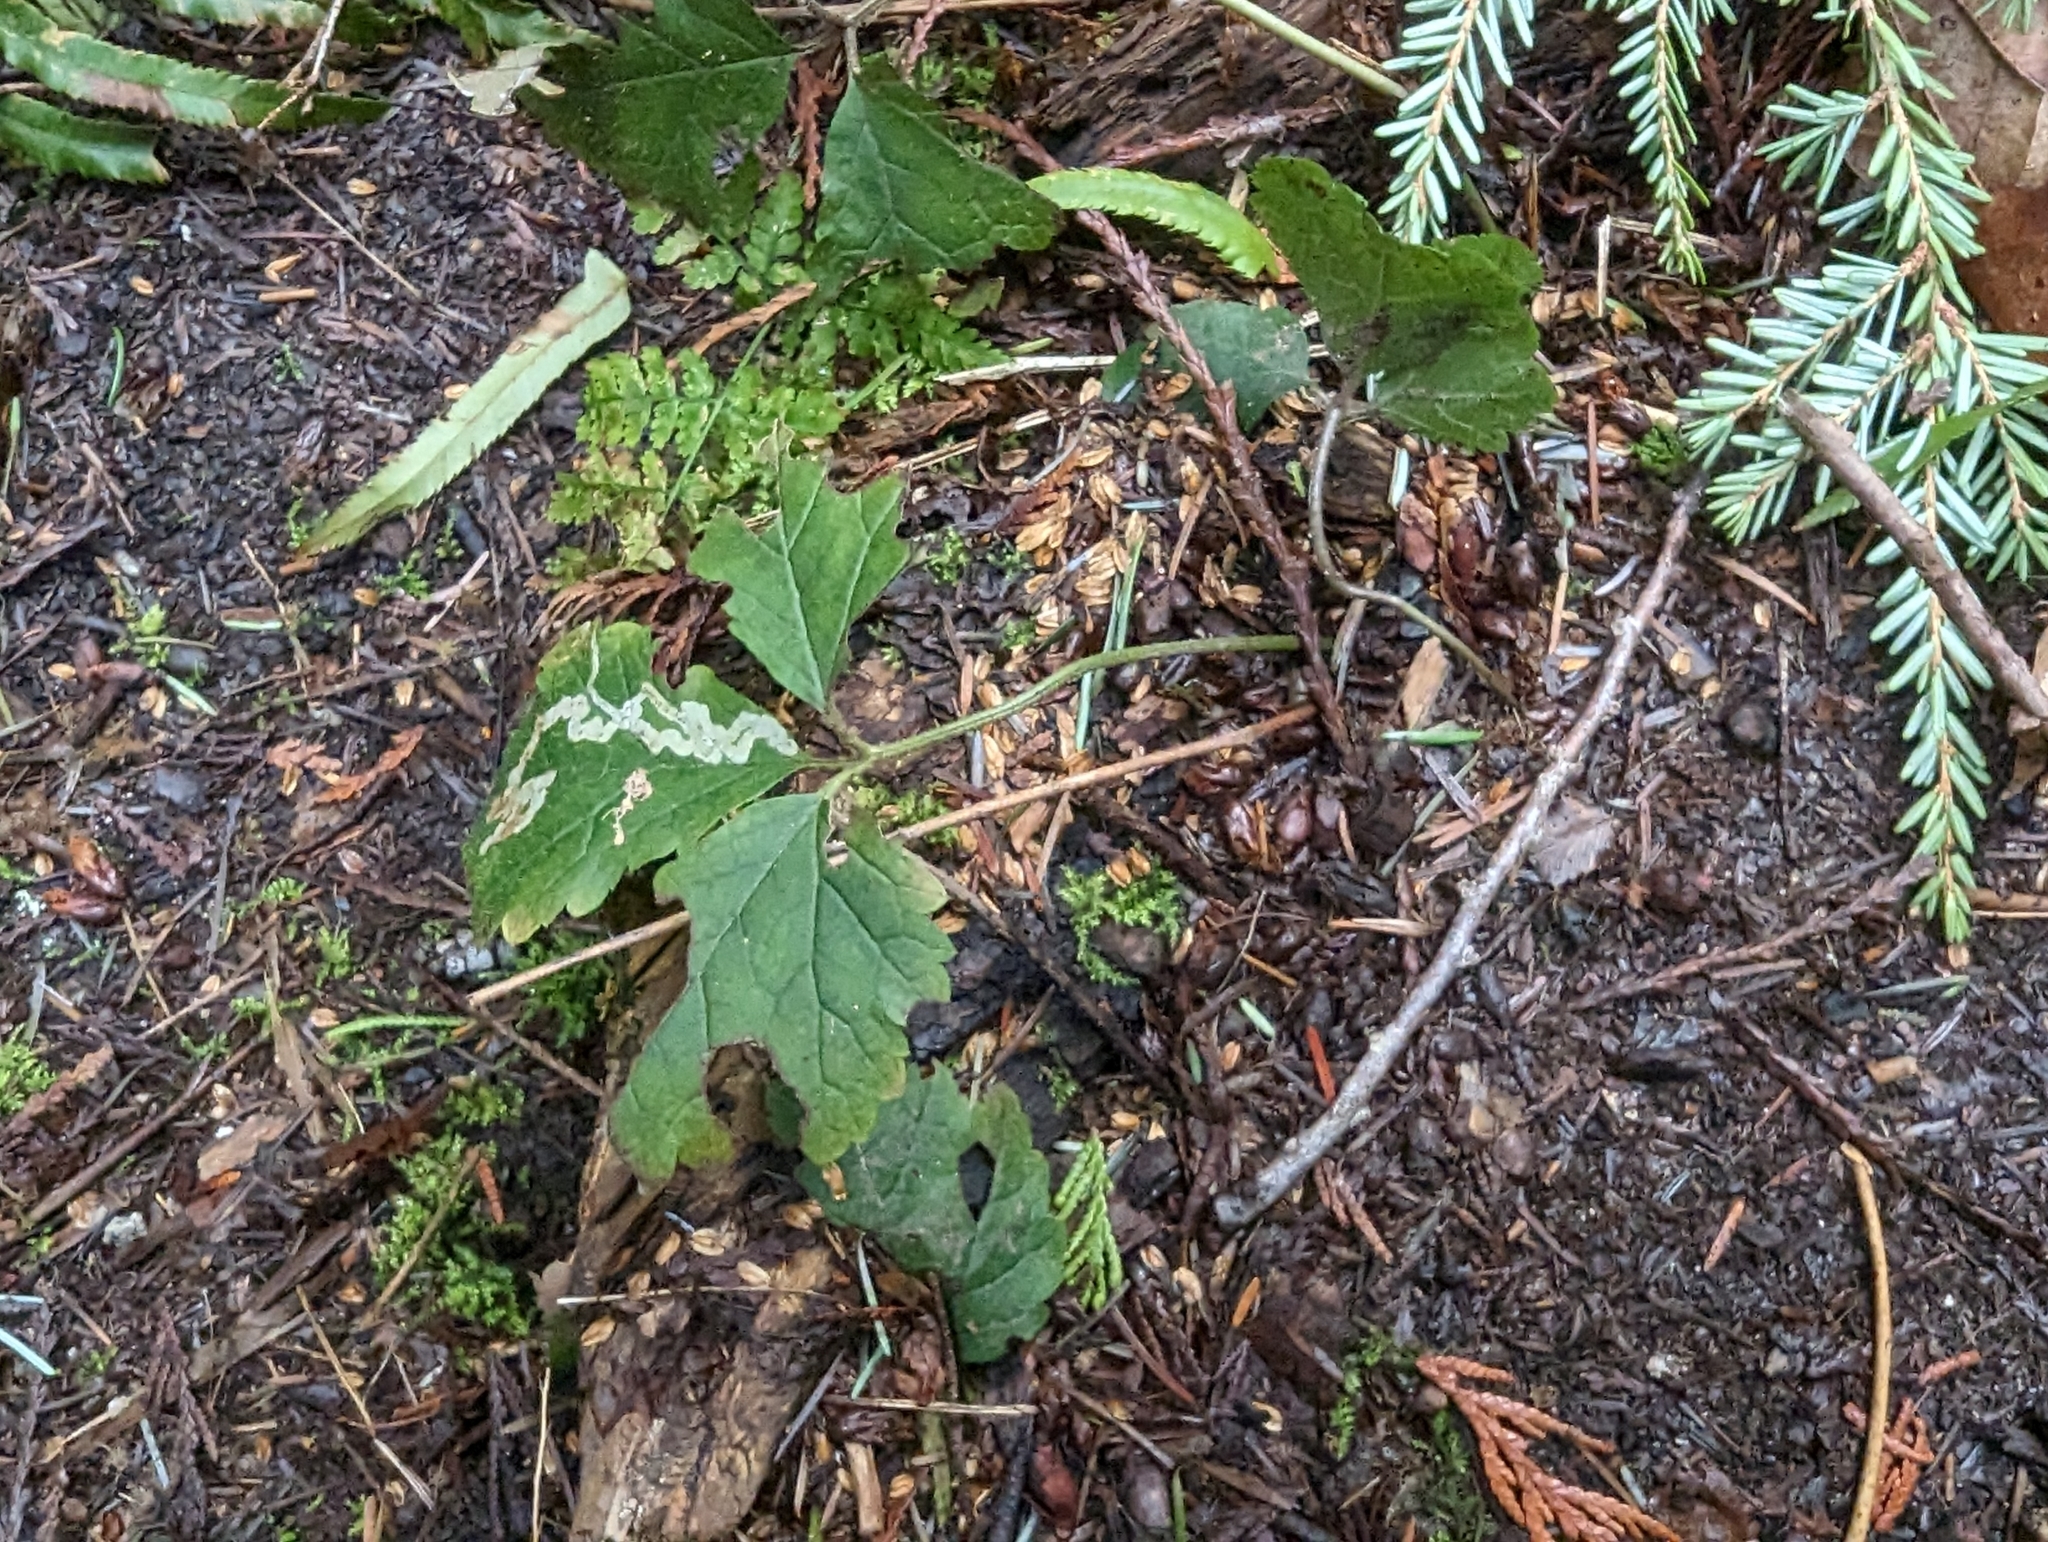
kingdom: Plantae
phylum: Tracheophyta
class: Magnoliopsida
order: Saxifragales
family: Saxifragaceae
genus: Tiarella
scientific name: Tiarella trifoliata
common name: Sugar-scoop
